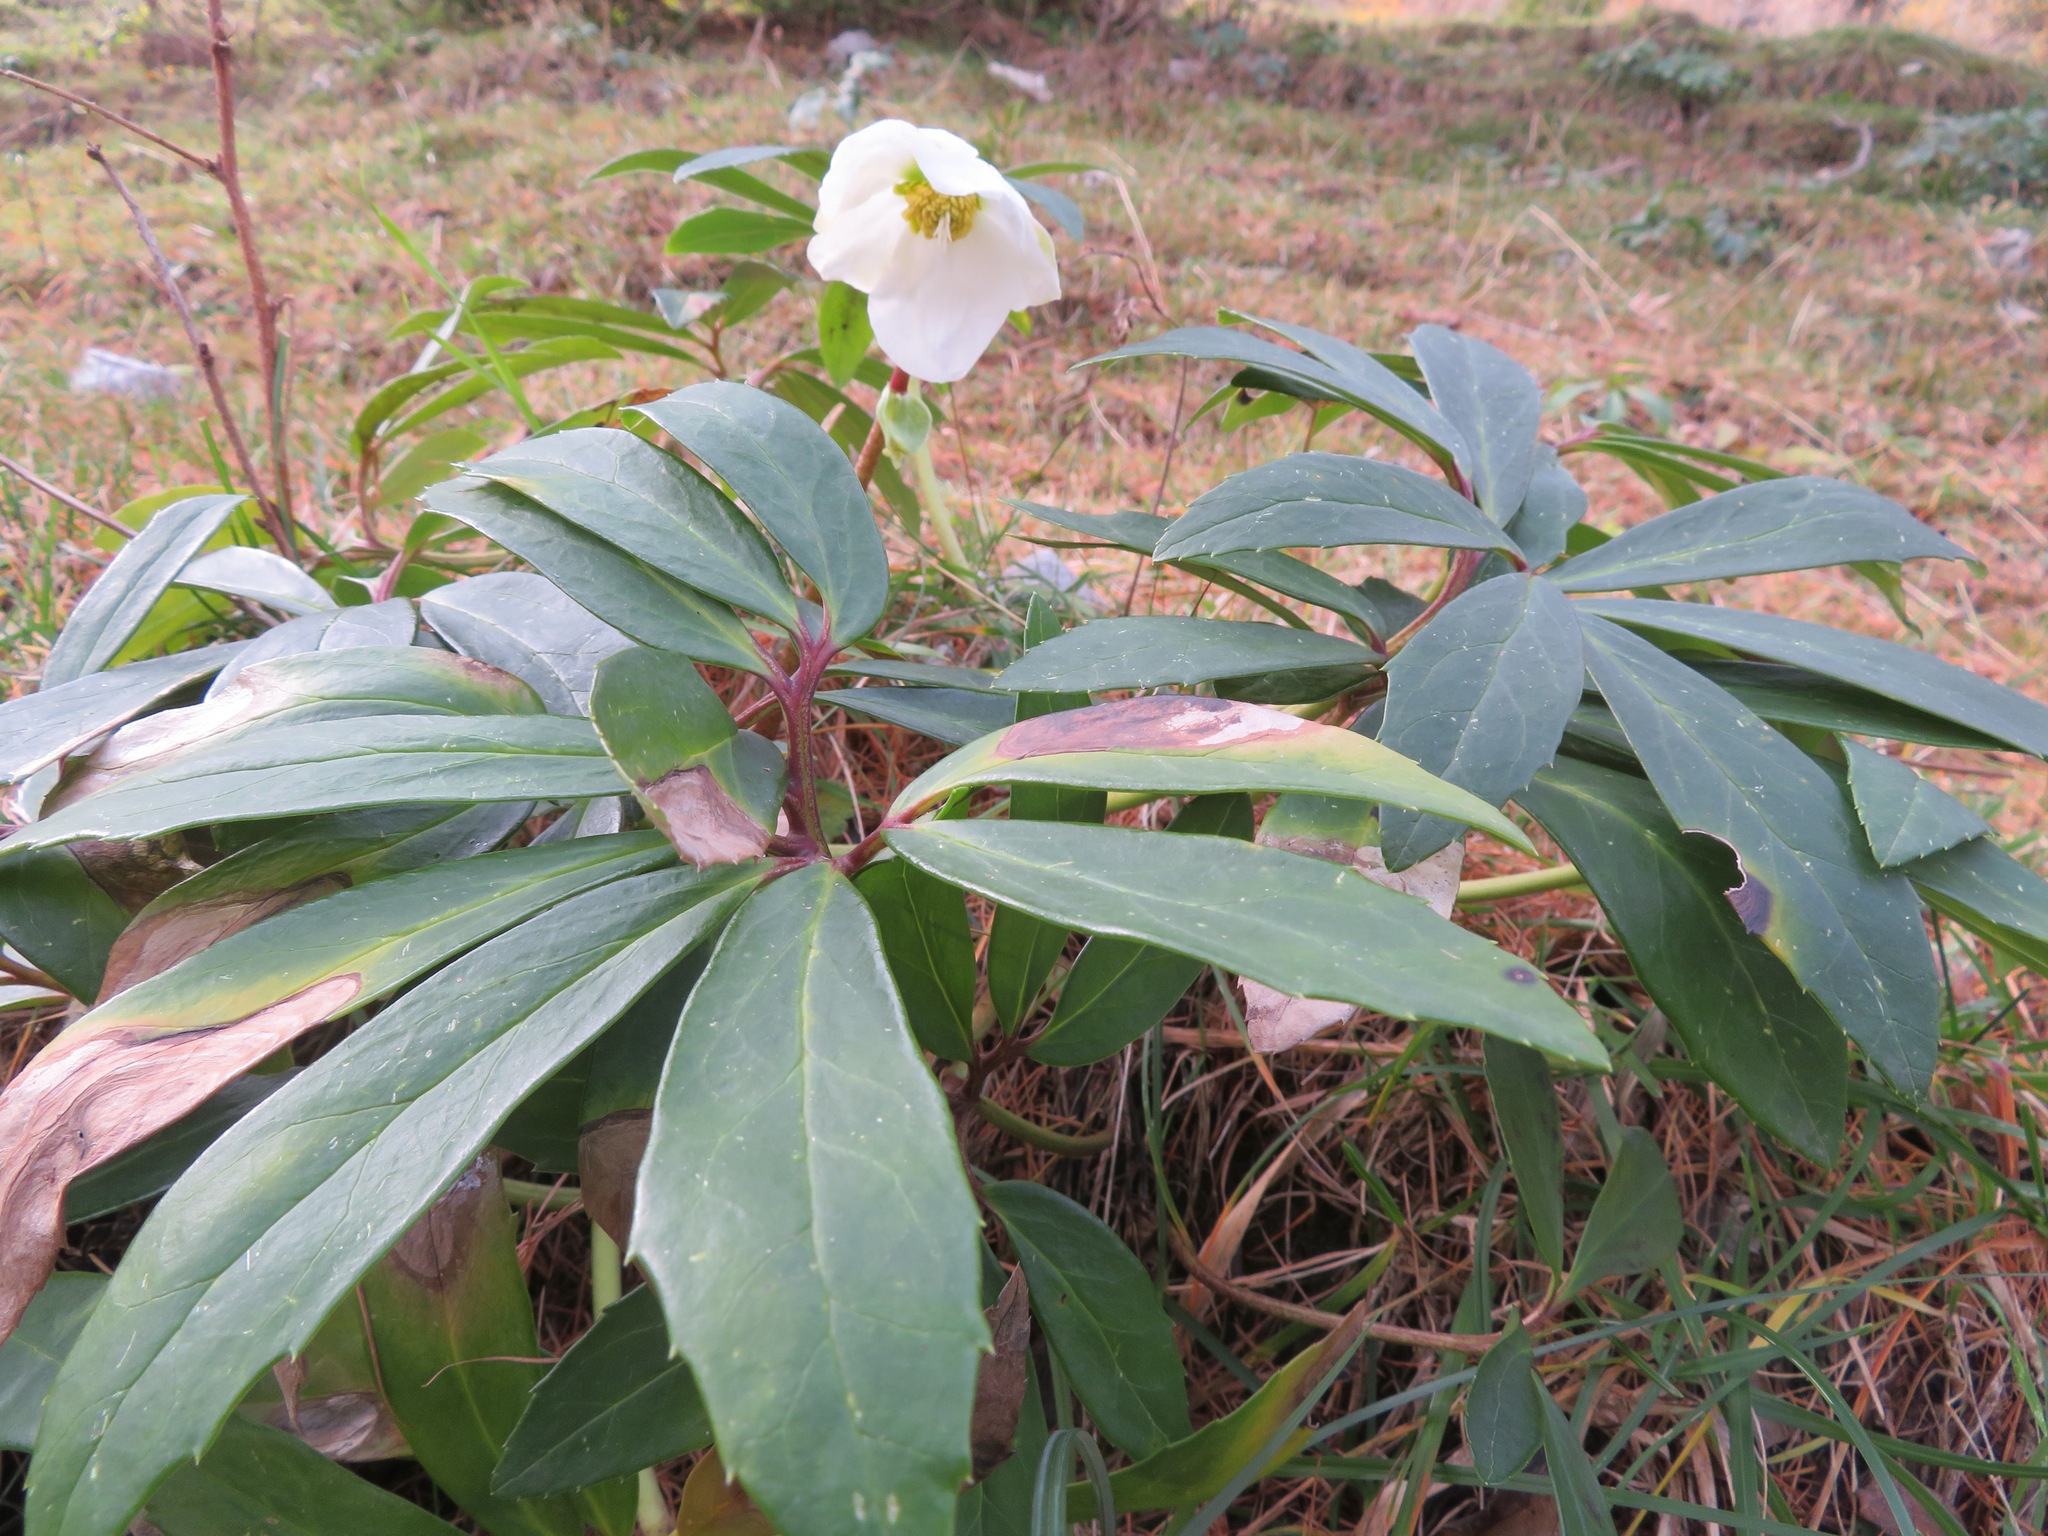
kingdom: Plantae
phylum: Tracheophyta
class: Magnoliopsida
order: Ranunculales
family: Ranunculaceae
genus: Helleborus
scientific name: Helleborus niger
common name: Black hellebore
